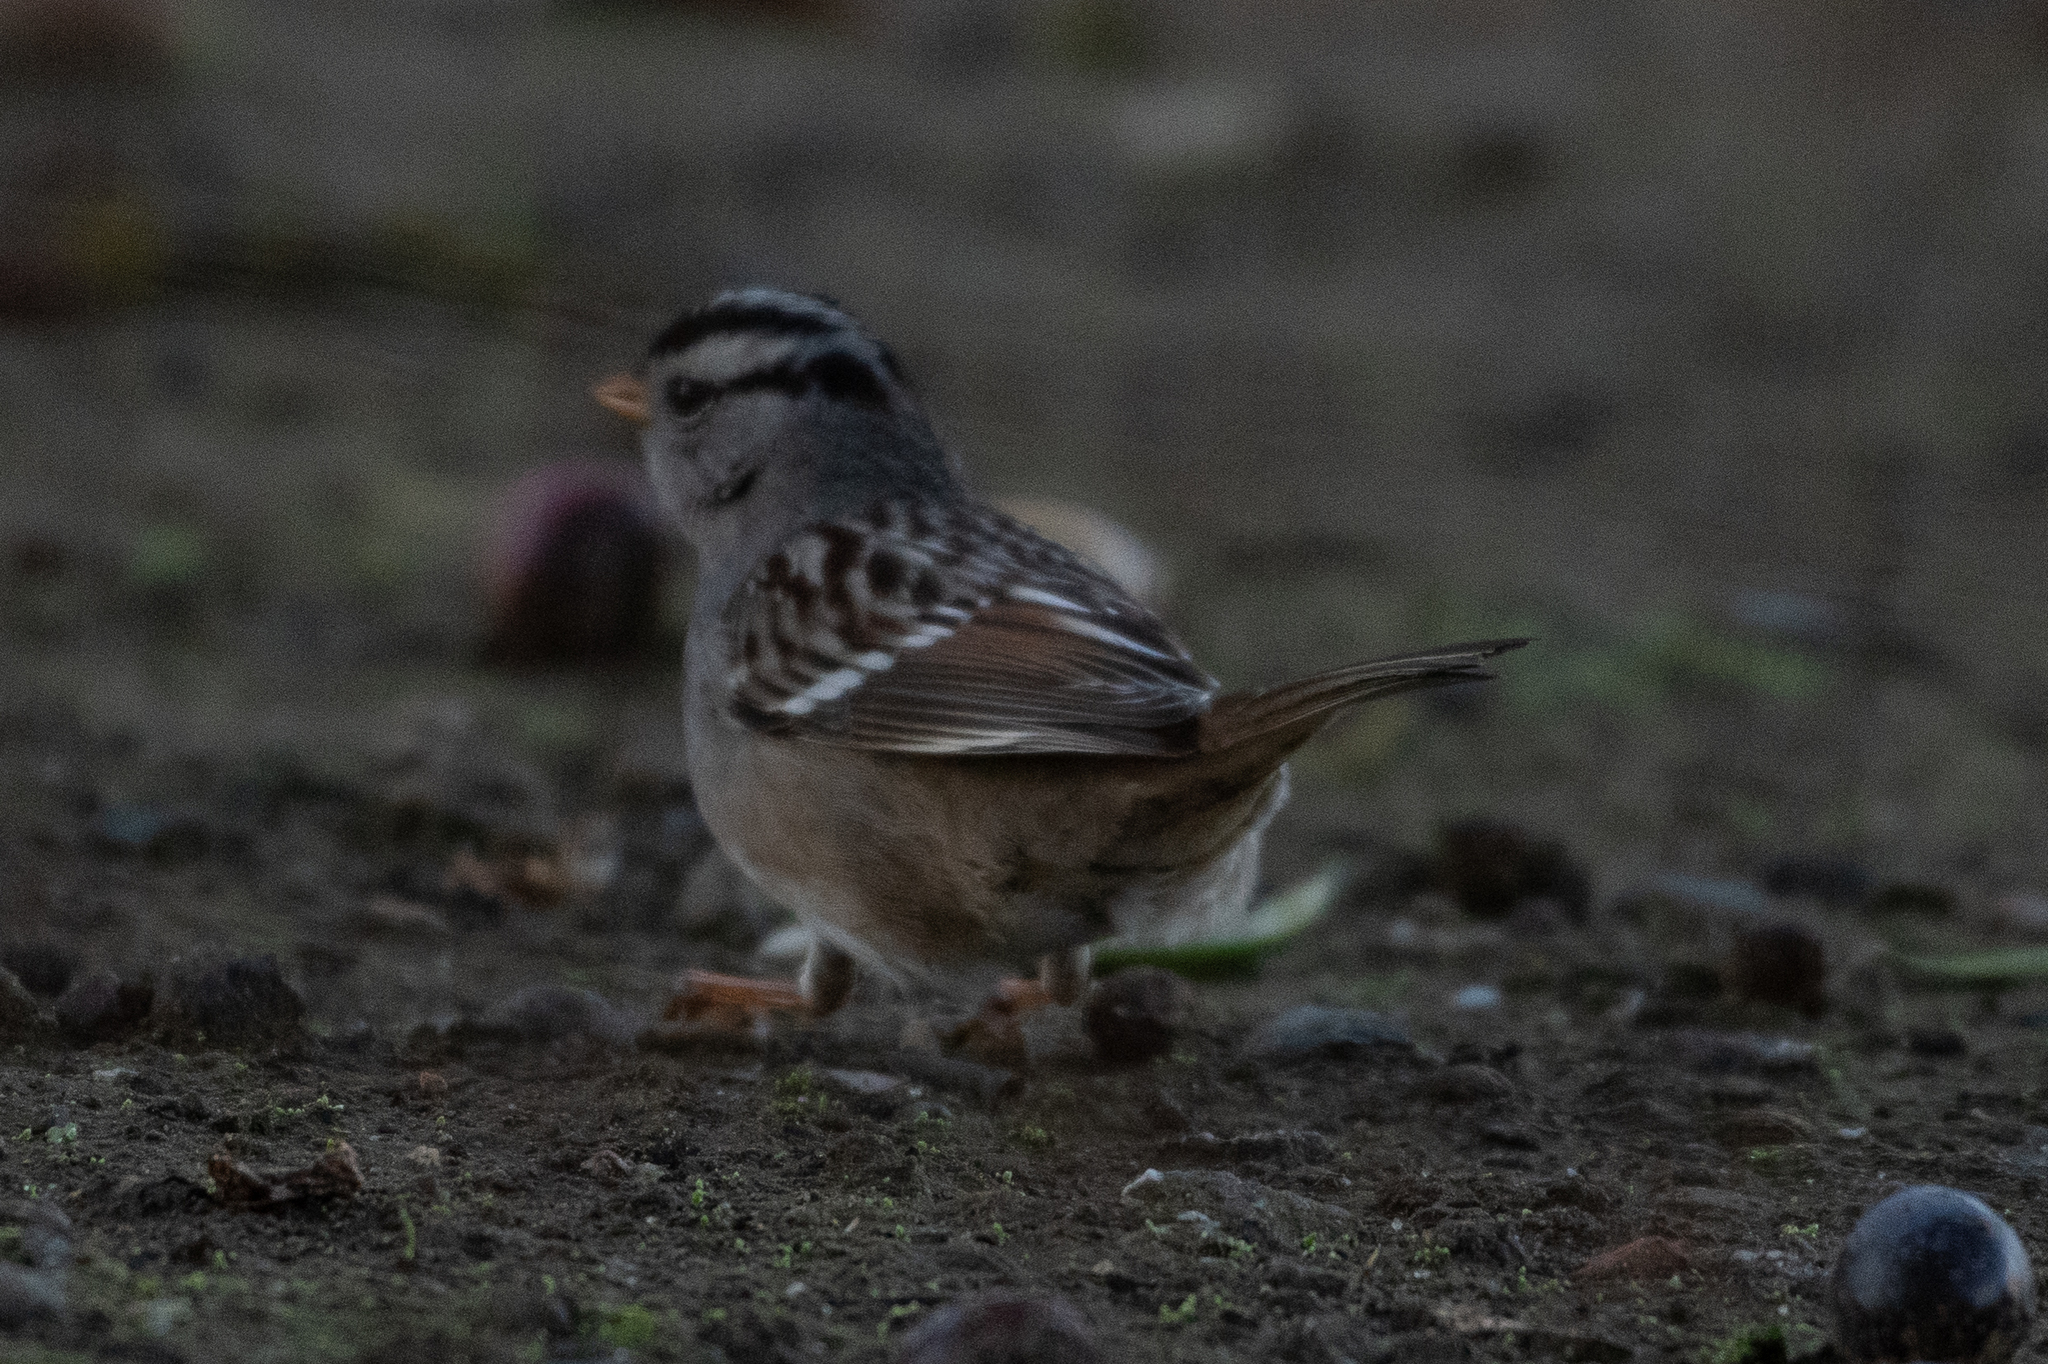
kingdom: Animalia
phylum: Chordata
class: Aves
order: Passeriformes
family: Passerellidae
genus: Zonotrichia
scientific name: Zonotrichia leucophrys
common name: White-crowned sparrow
